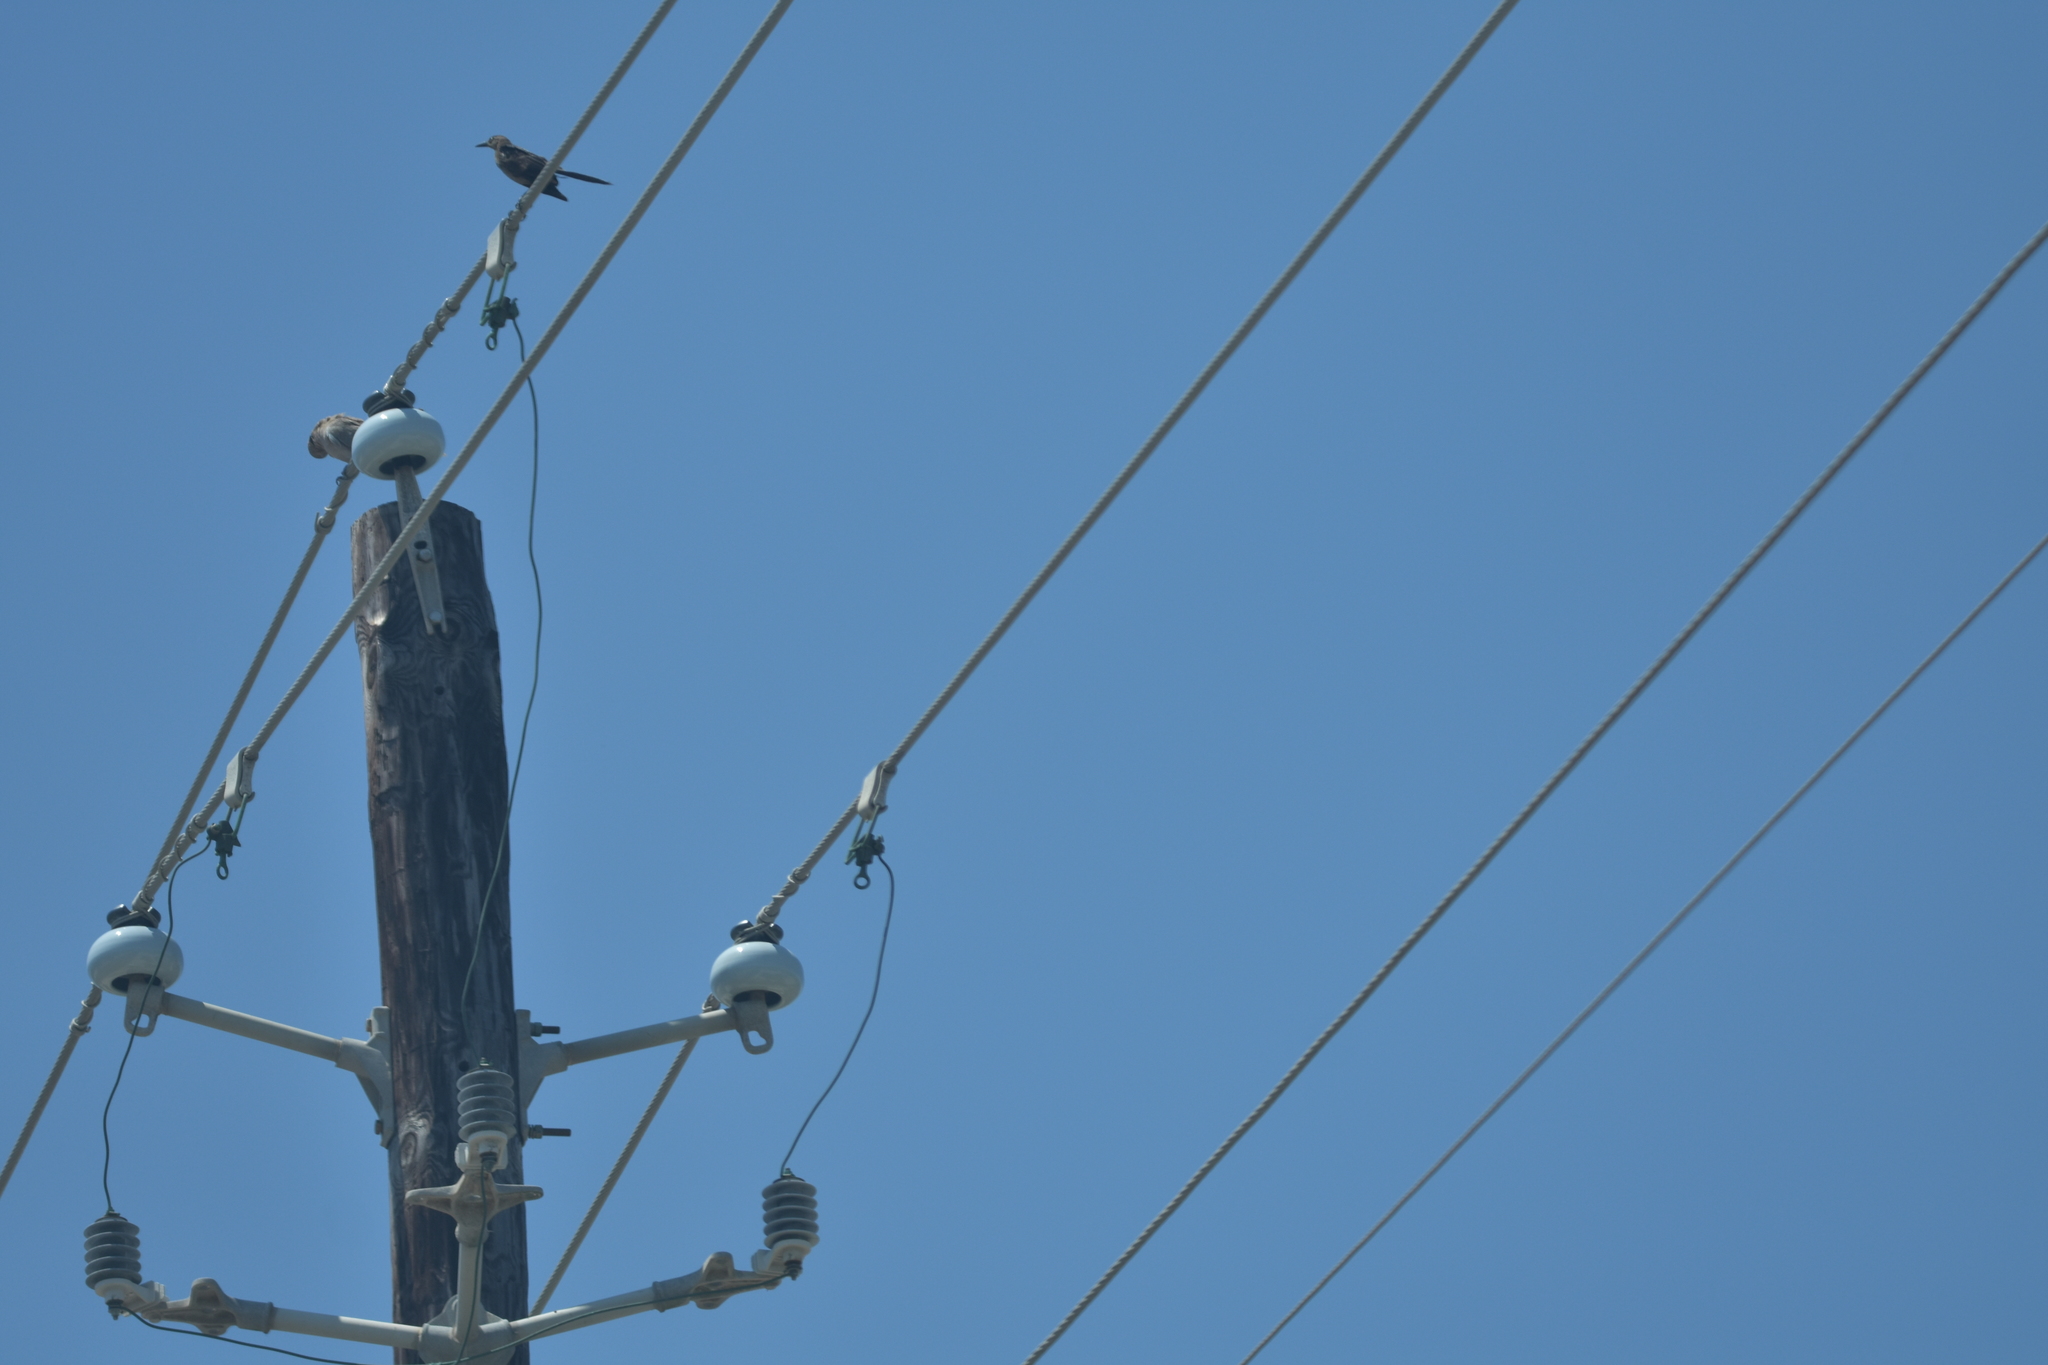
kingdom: Animalia
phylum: Chordata
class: Aves
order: Passeriformes
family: Icteridae
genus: Quiscalus
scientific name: Quiscalus mexicanus
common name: Great-tailed grackle
